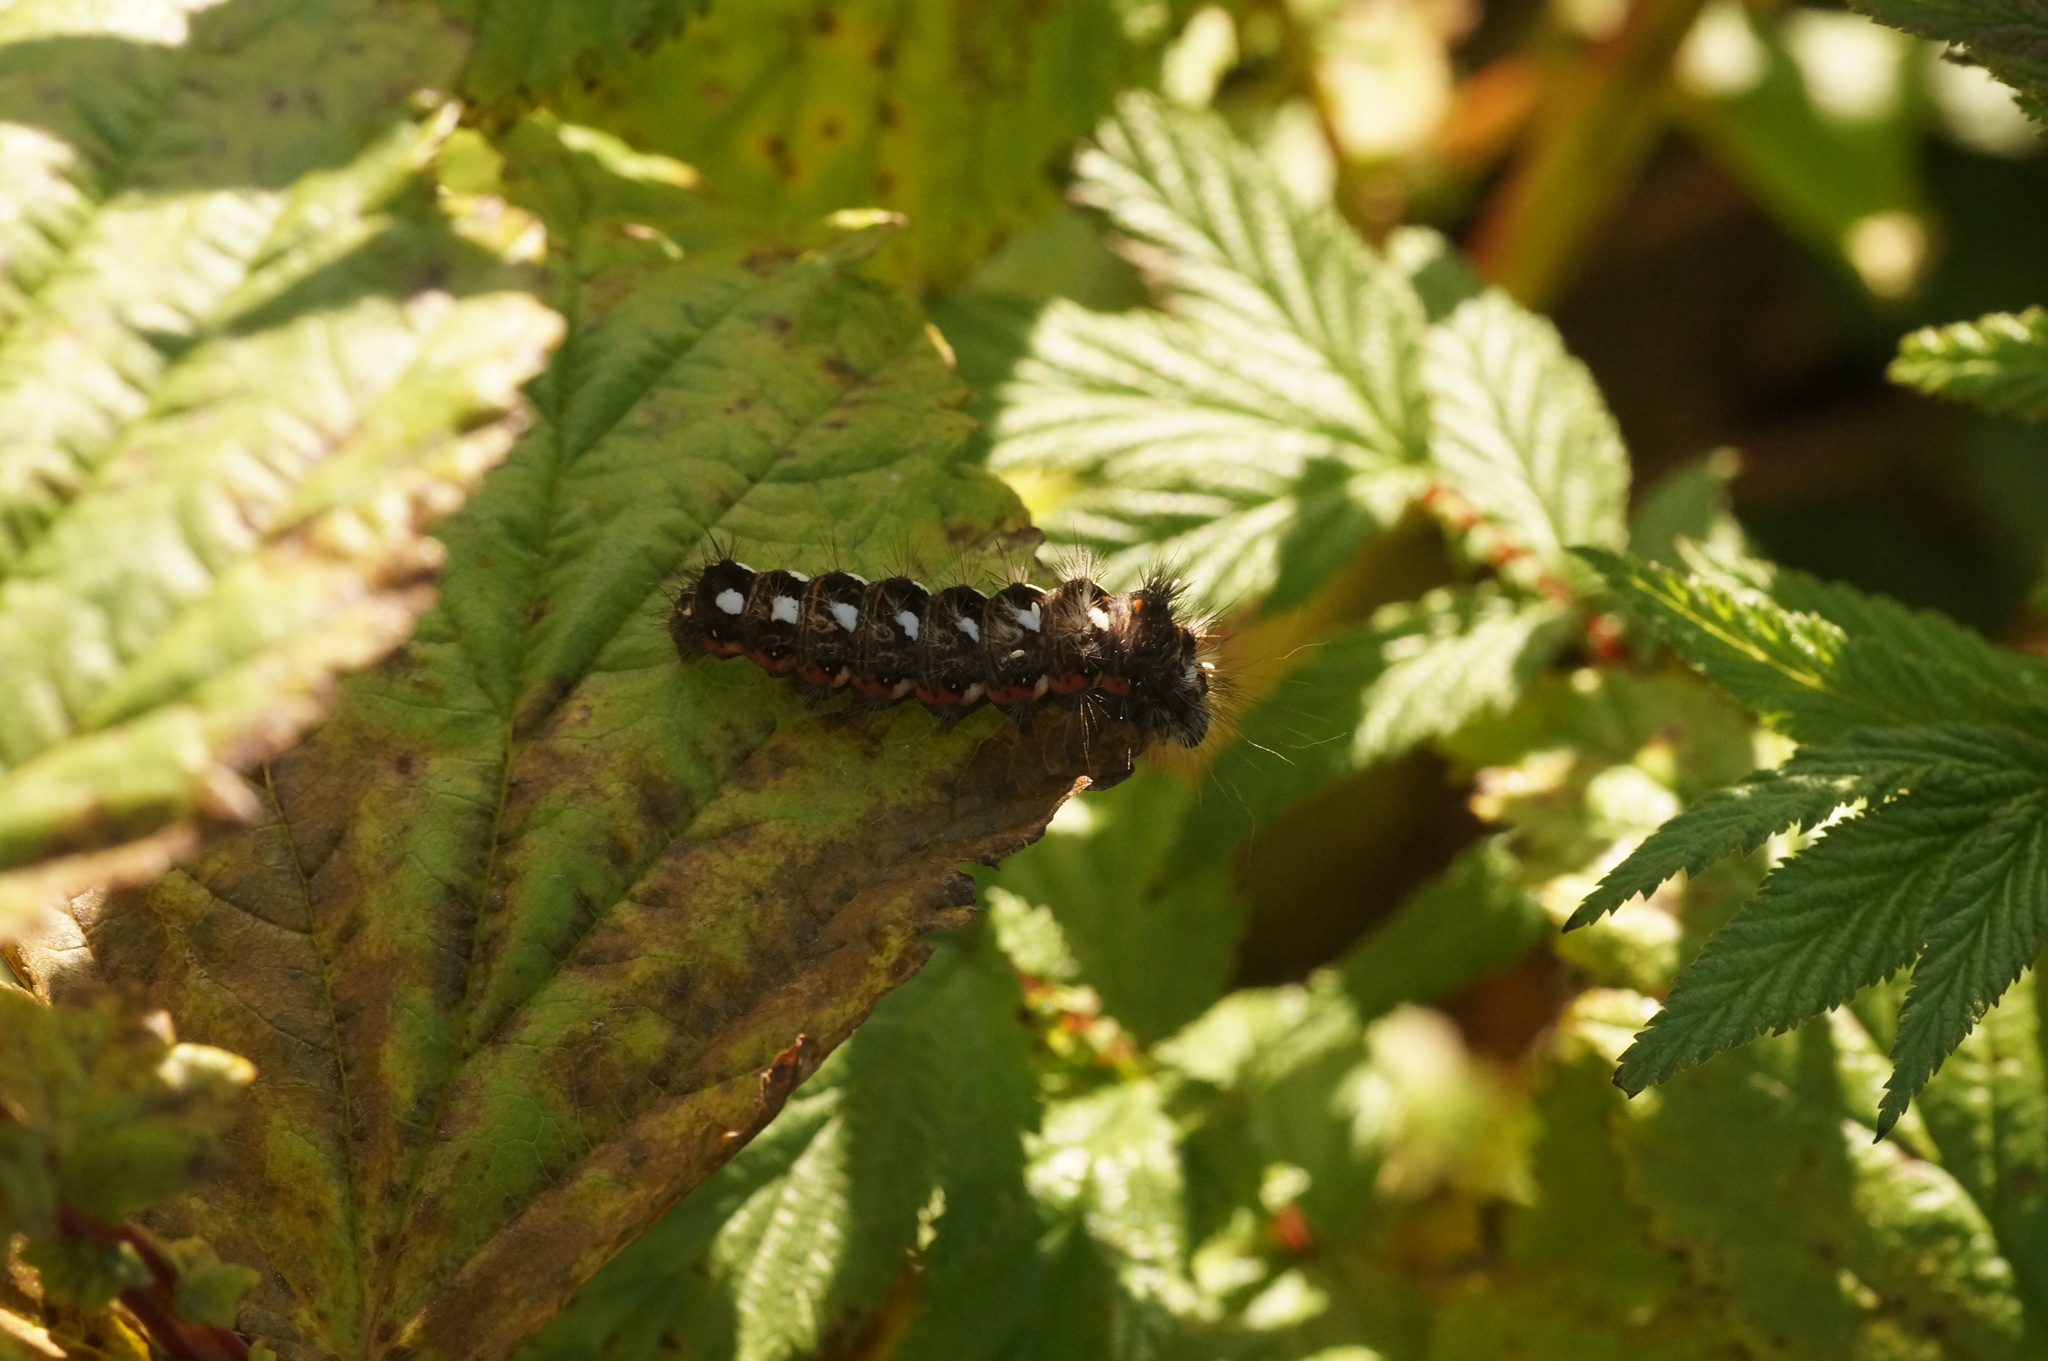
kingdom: Animalia
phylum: Arthropoda
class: Insecta
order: Lepidoptera
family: Noctuidae
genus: Acronicta
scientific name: Acronicta rumicis
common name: Knot grass
